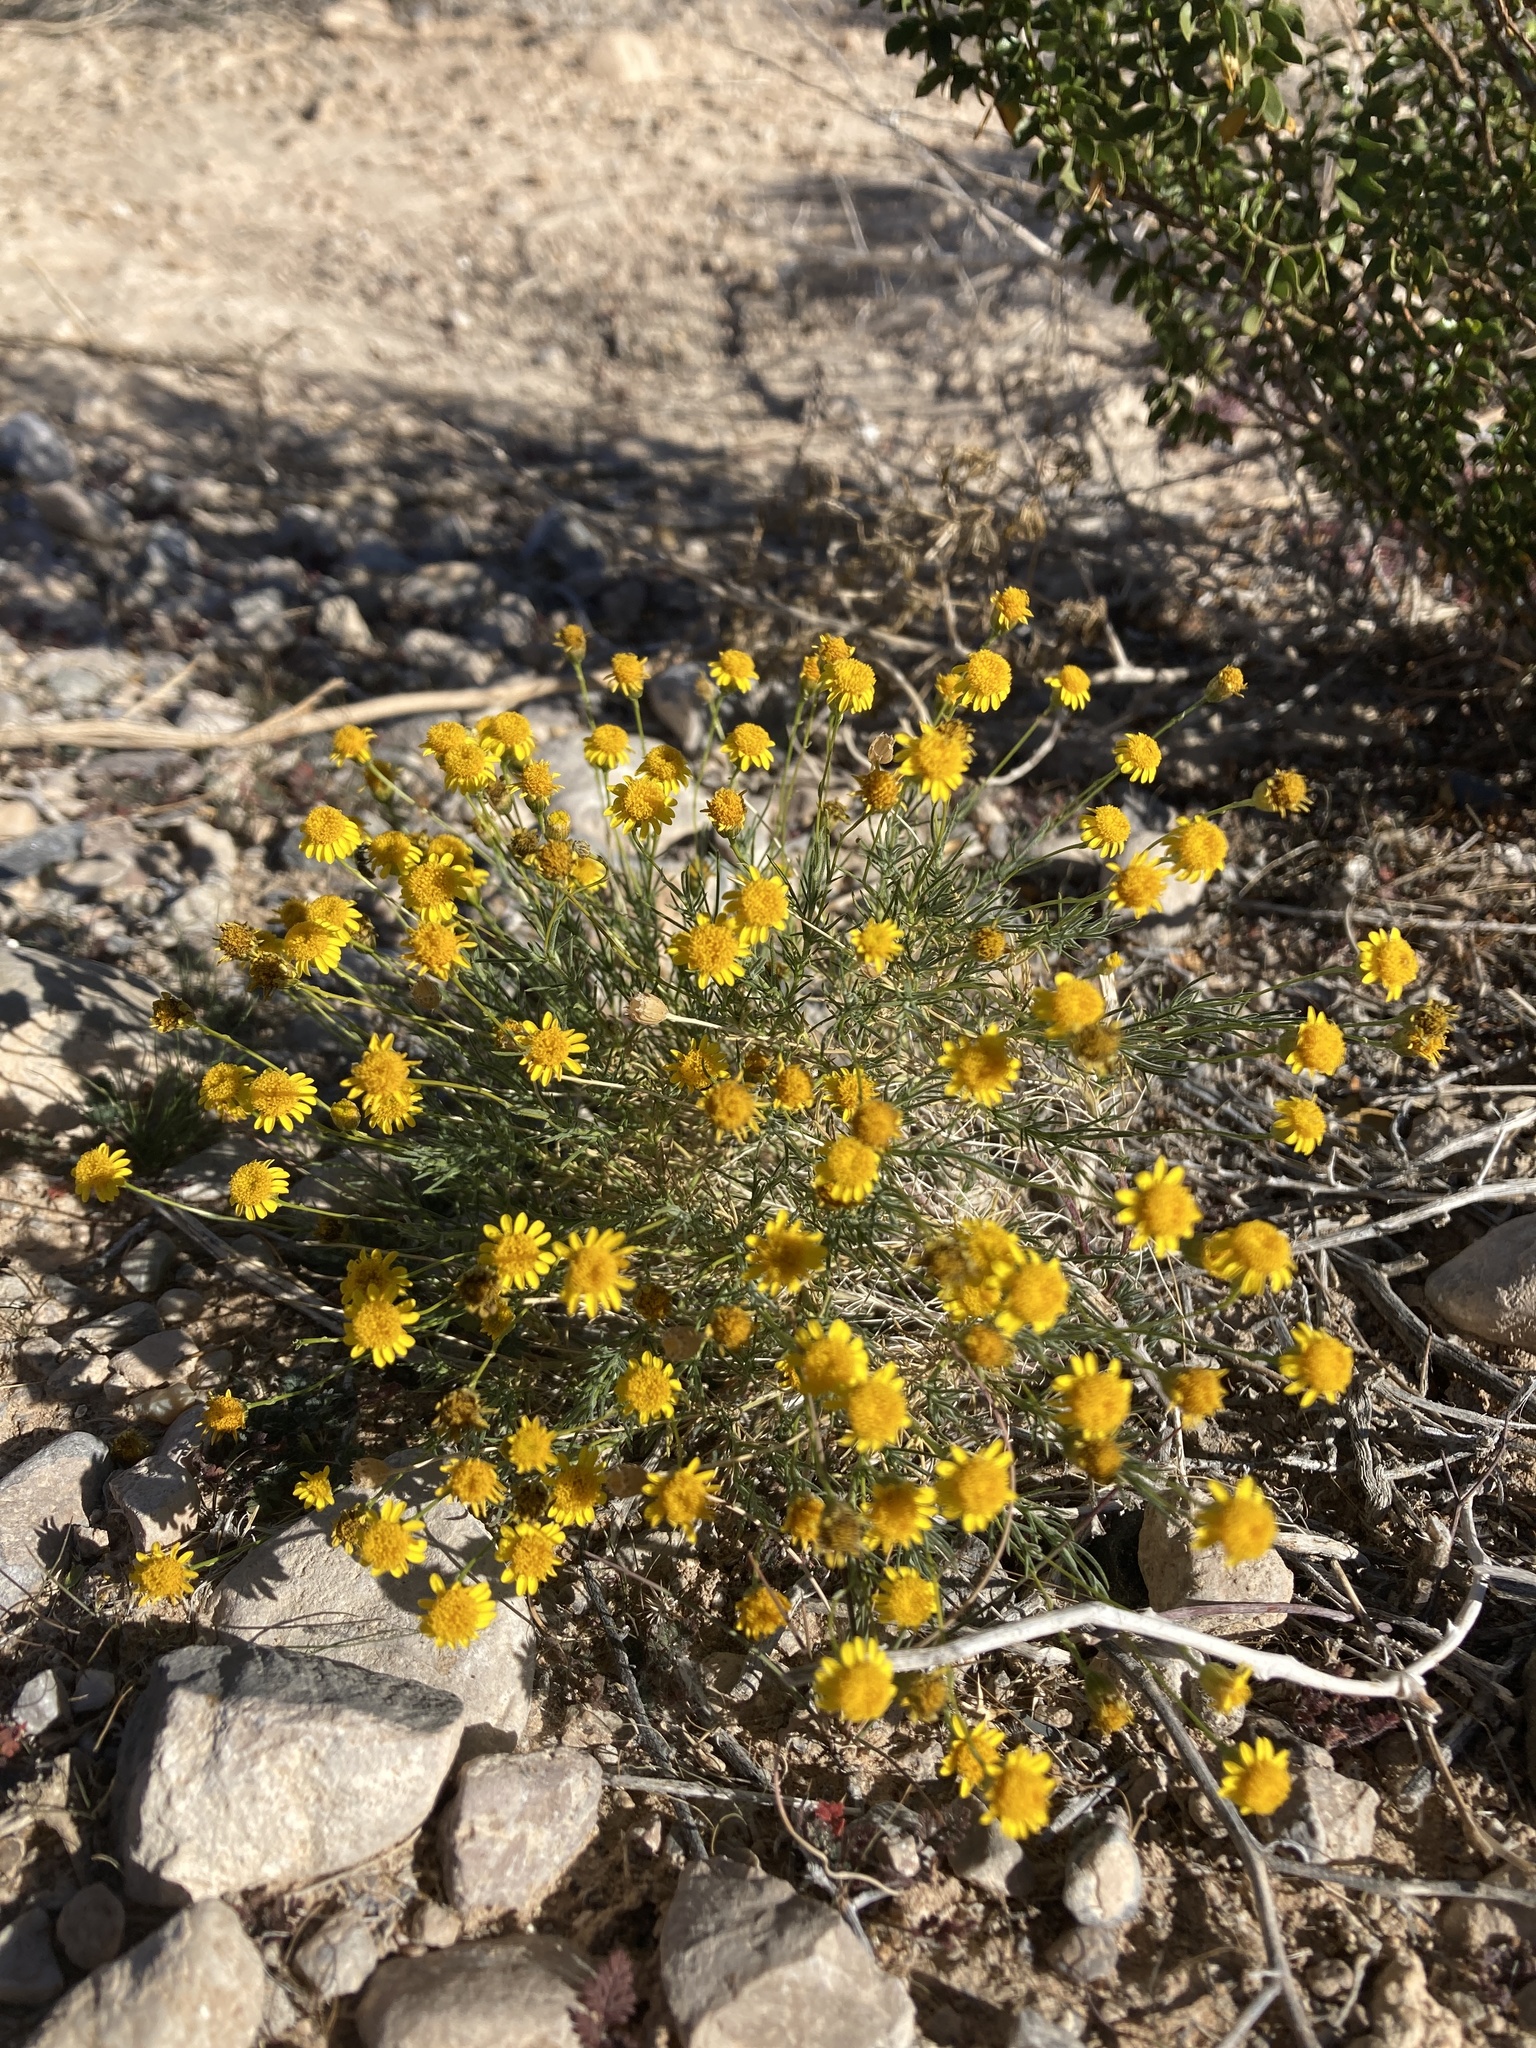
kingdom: Plantae
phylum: Tracheophyta
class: Magnoliopsida
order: Asterales
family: Asteraceae
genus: Thymophylla
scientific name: Thymophylla pentachaeta
